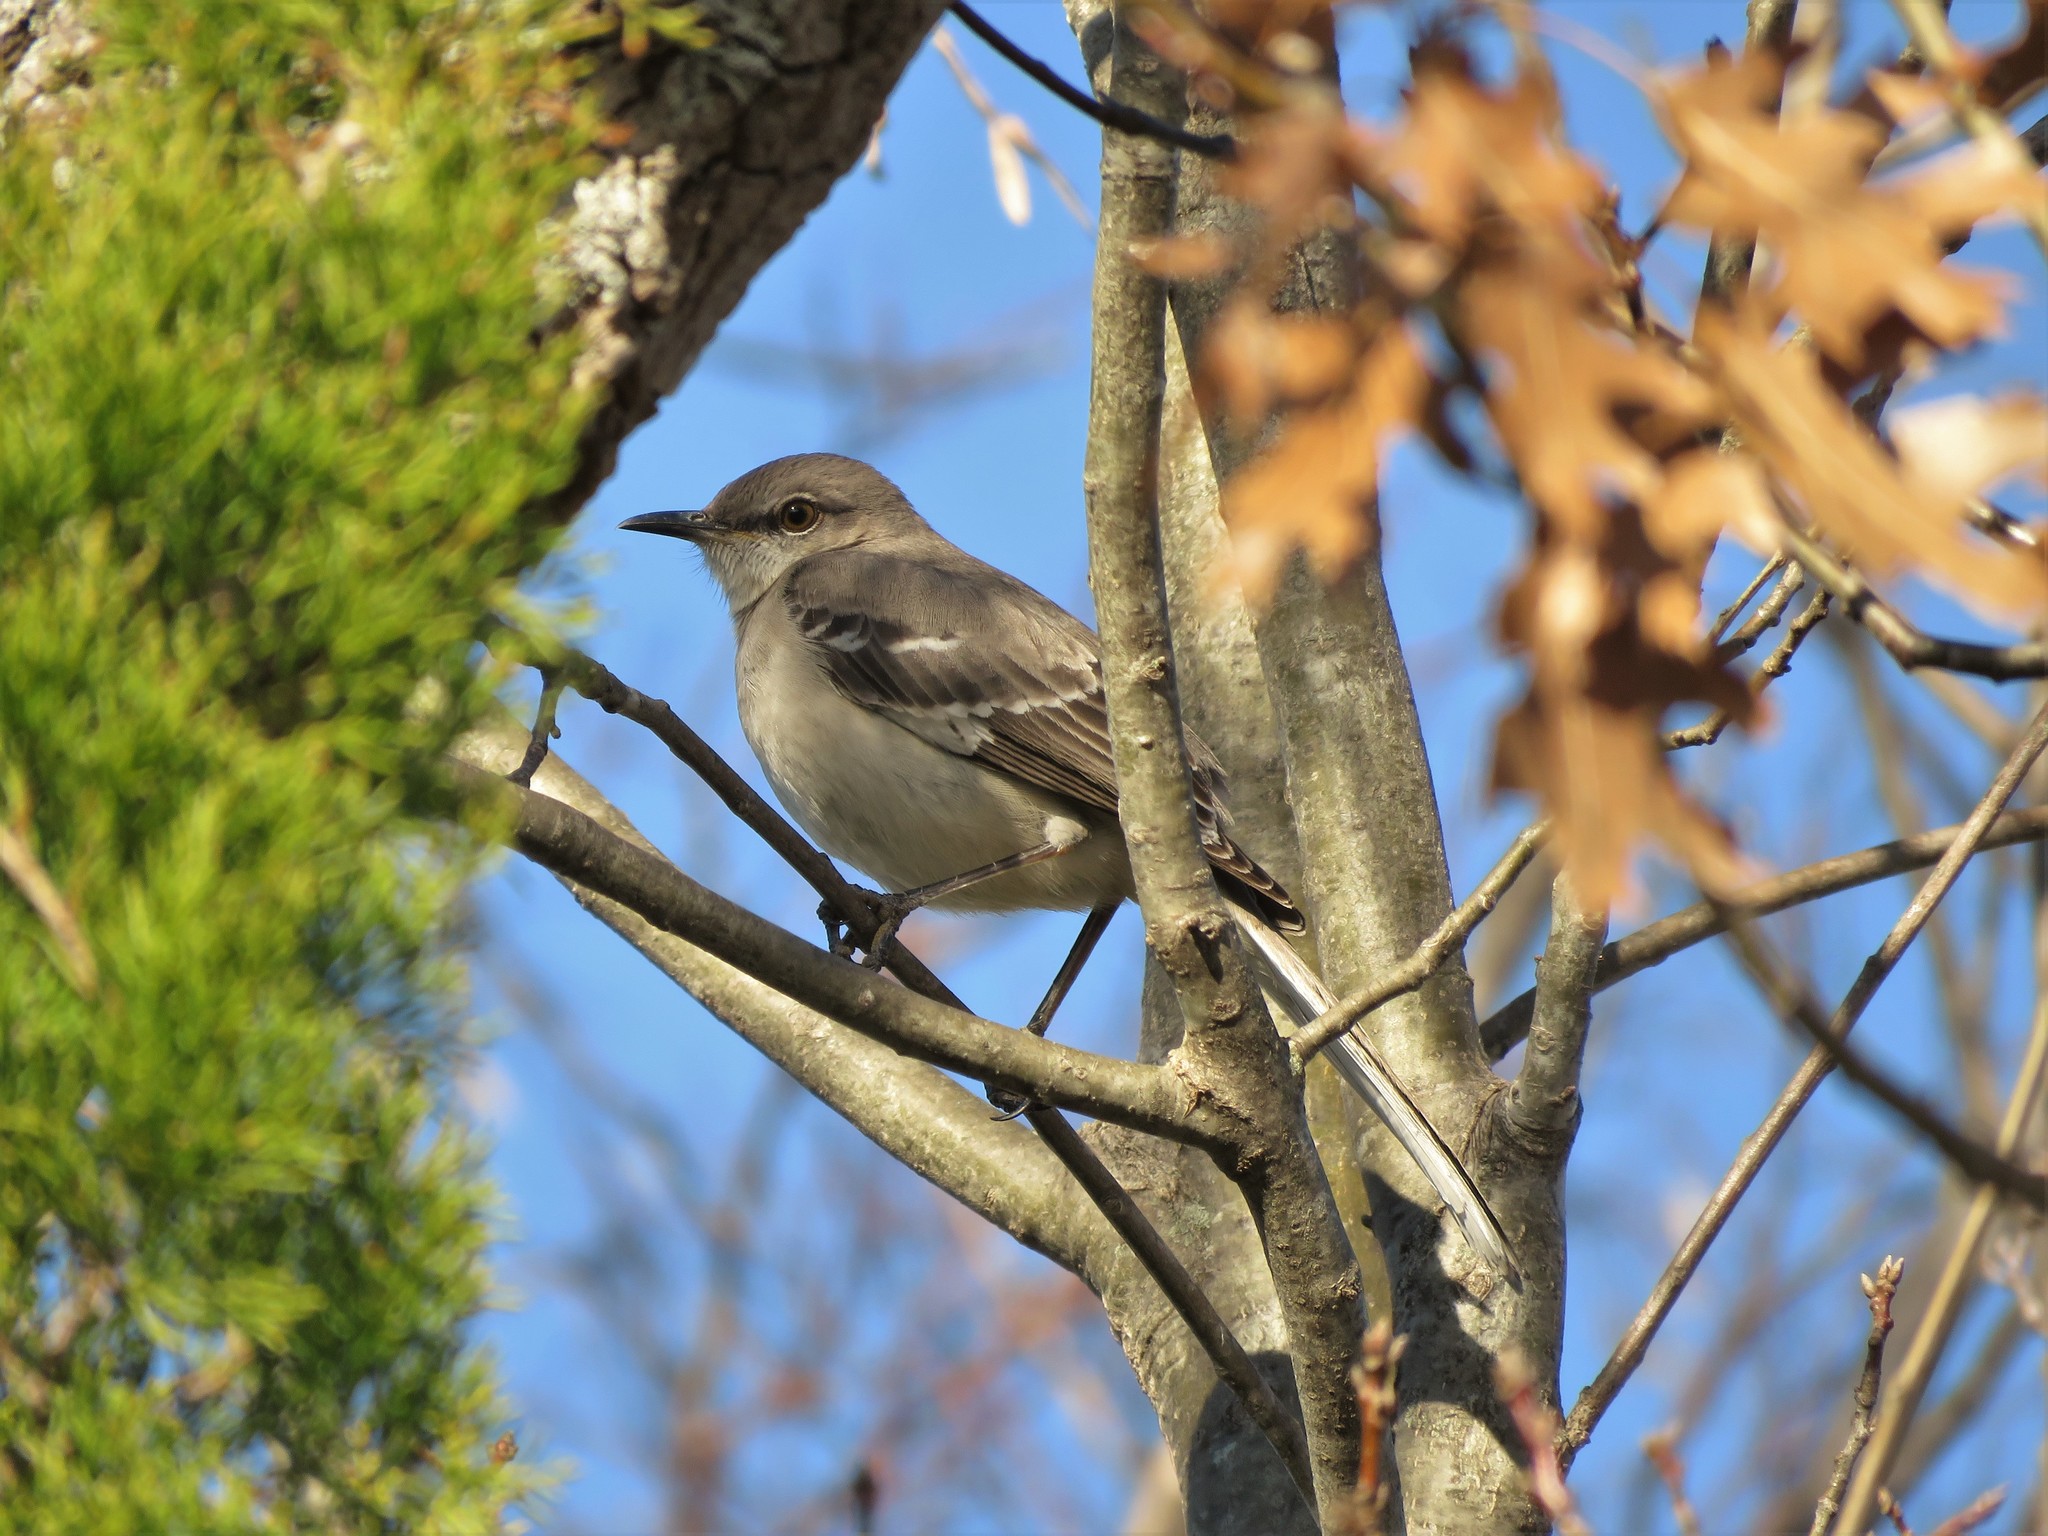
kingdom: Animalia
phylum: Chordata
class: Aves
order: Passeriformes
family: Mimidae
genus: Mimus
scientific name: Mimus polyglottos
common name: Northern mockingbird
